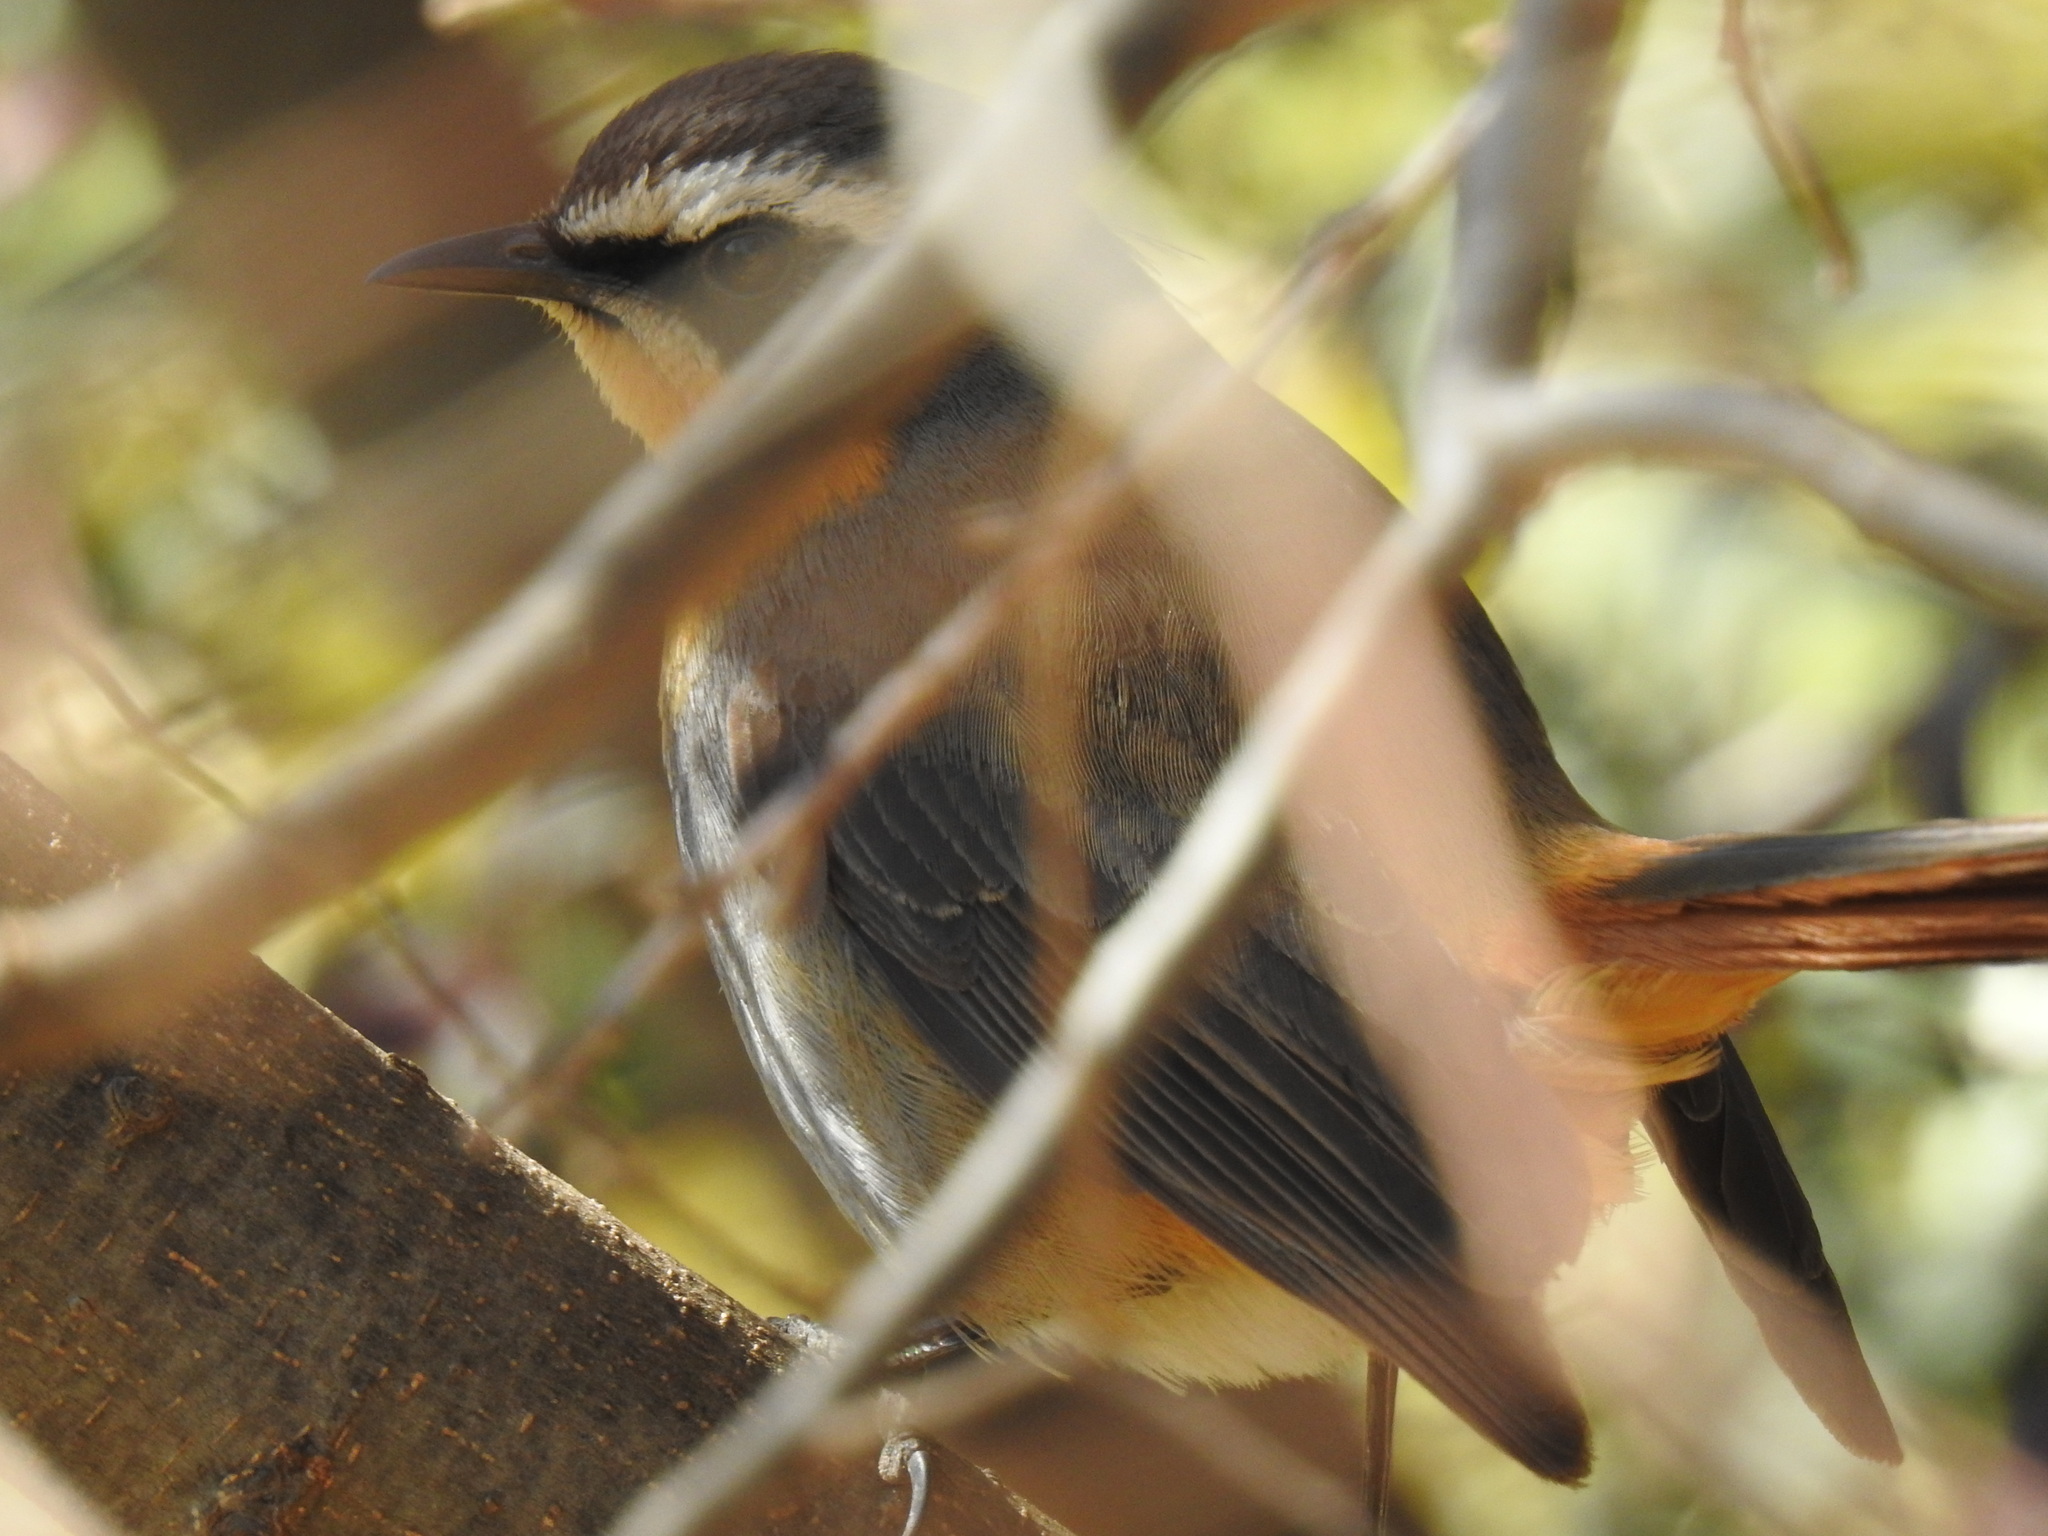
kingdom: Animalia
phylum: Chordata
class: Aves
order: Passeriformes
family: Muscicapidae
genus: Cossypha
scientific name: Cossypha caffra
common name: Cape robin-chat
